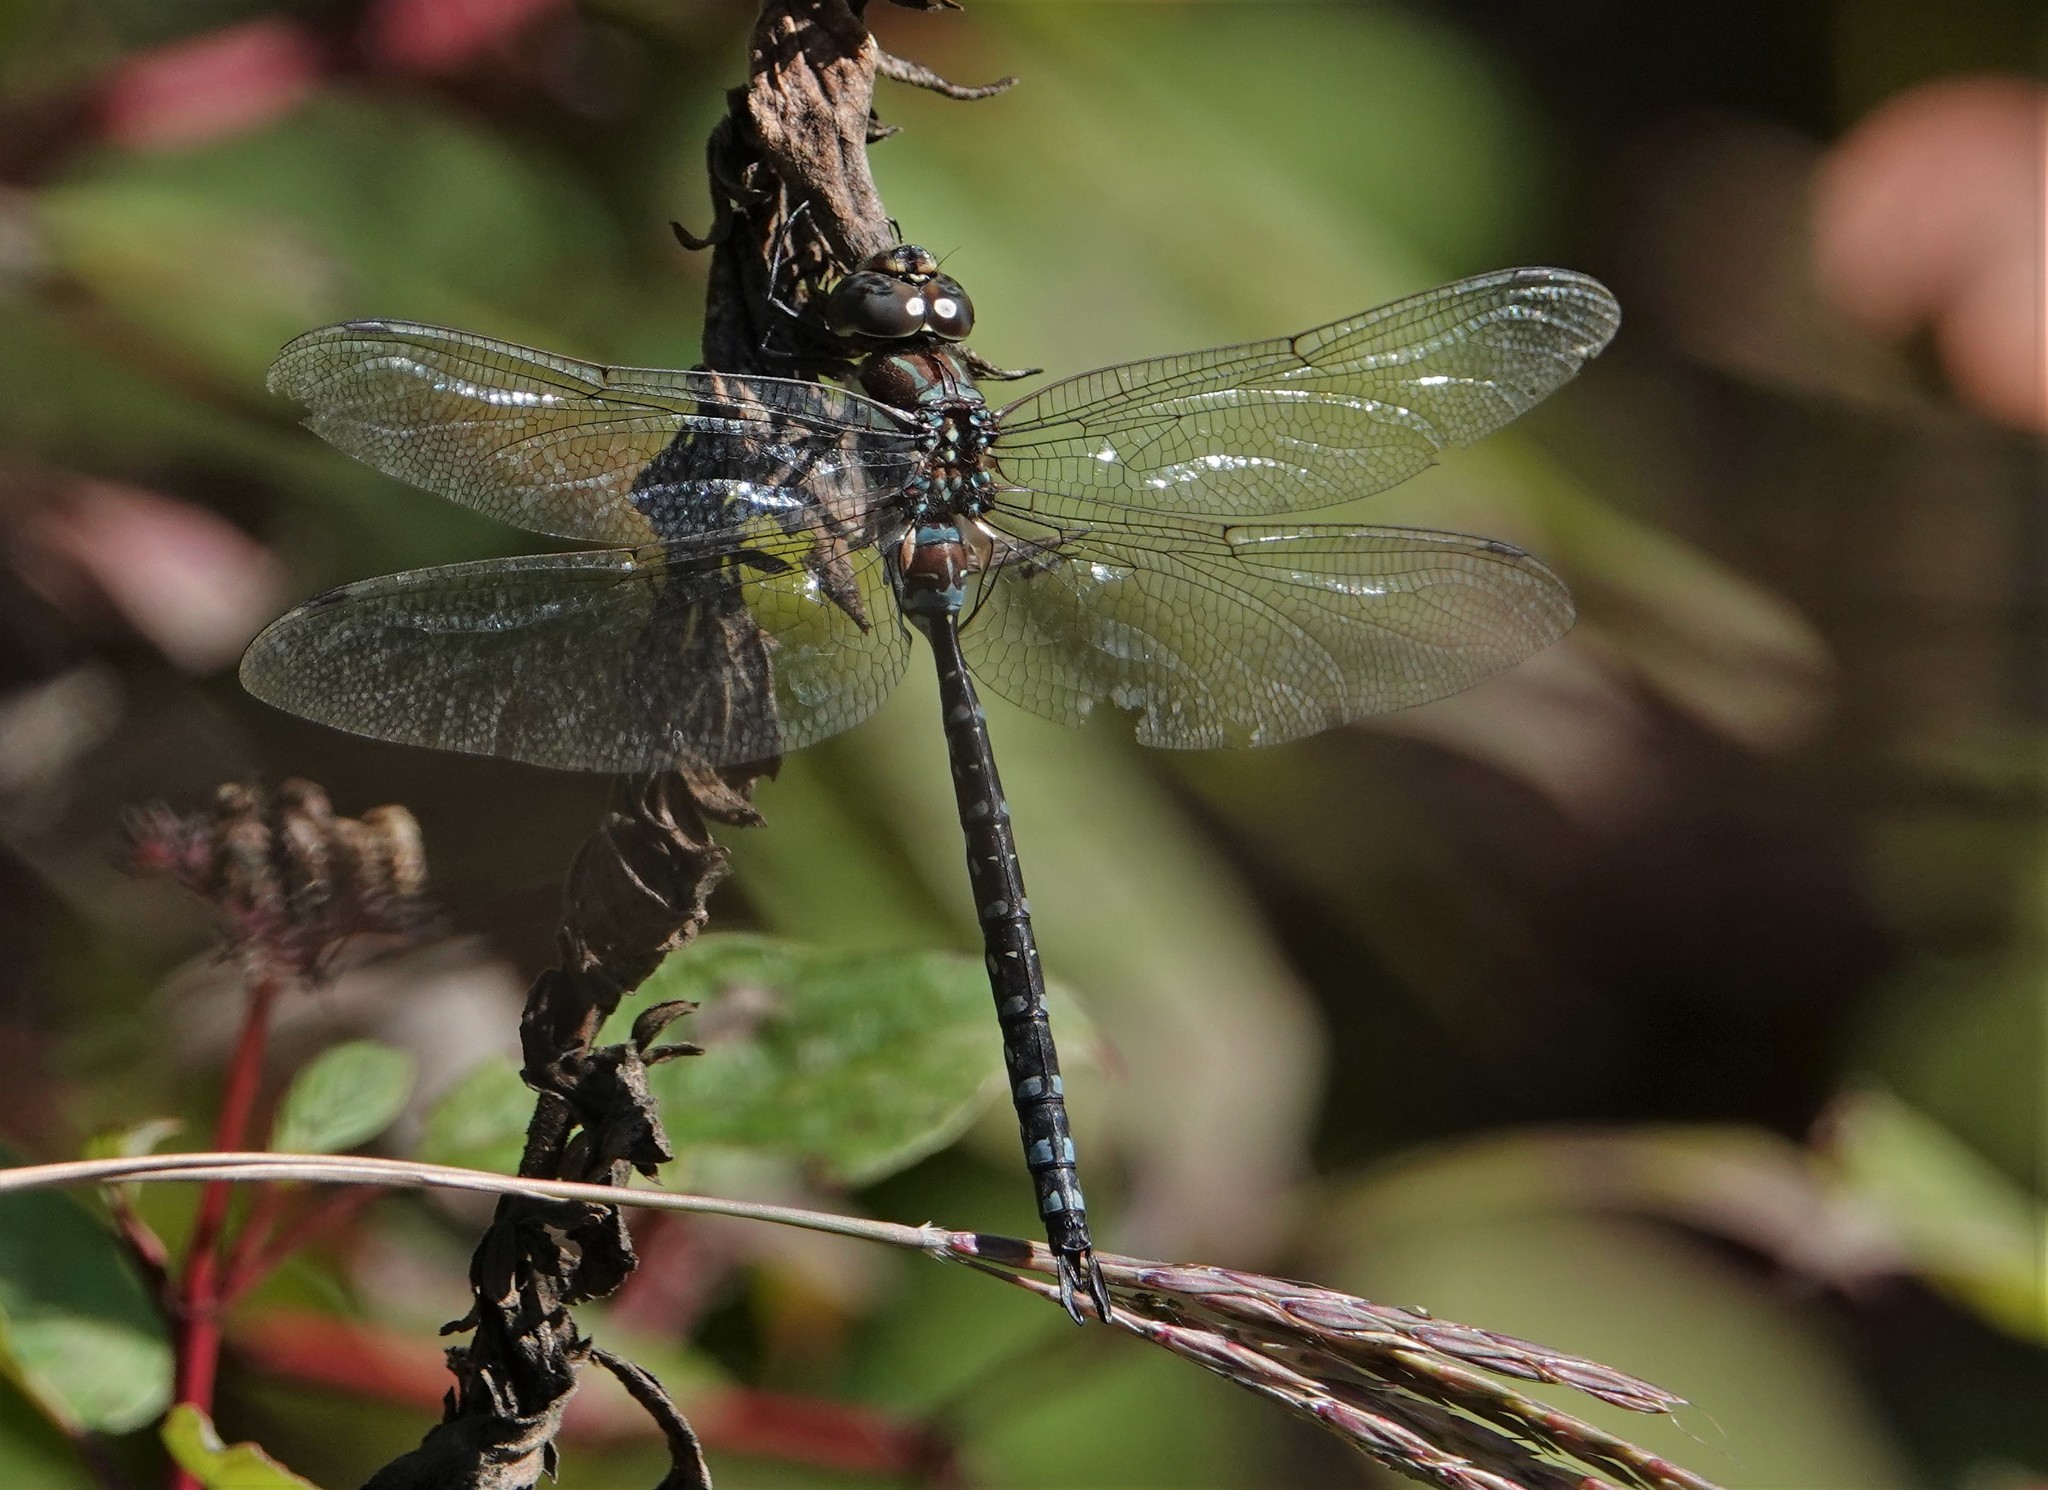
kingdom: Animalia
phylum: Arthropoda
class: Insecta
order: Odonata
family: Aeshnidae
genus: Aeshna
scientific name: Aeshna tuberculifera
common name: Aeschne à tubercules
